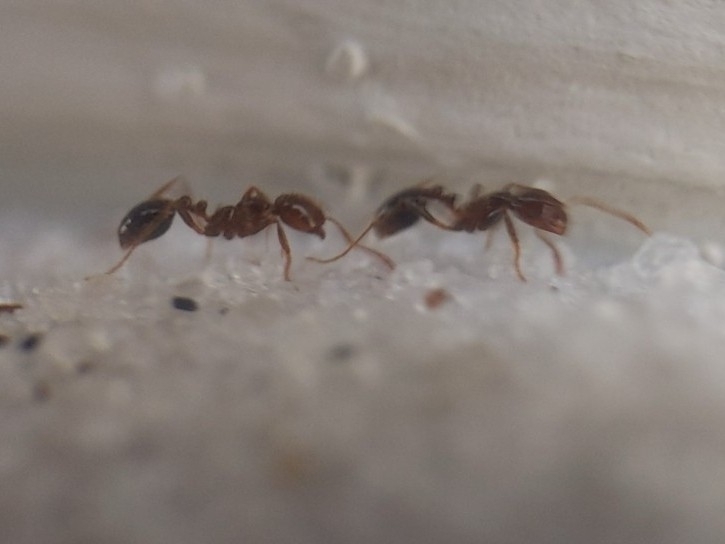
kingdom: Animalia
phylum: Arthropoda
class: Insecta
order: Hymenoptera
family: Formicidae
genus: Solenopsis
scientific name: Solenopsis invicta
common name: Red imported fire ant
